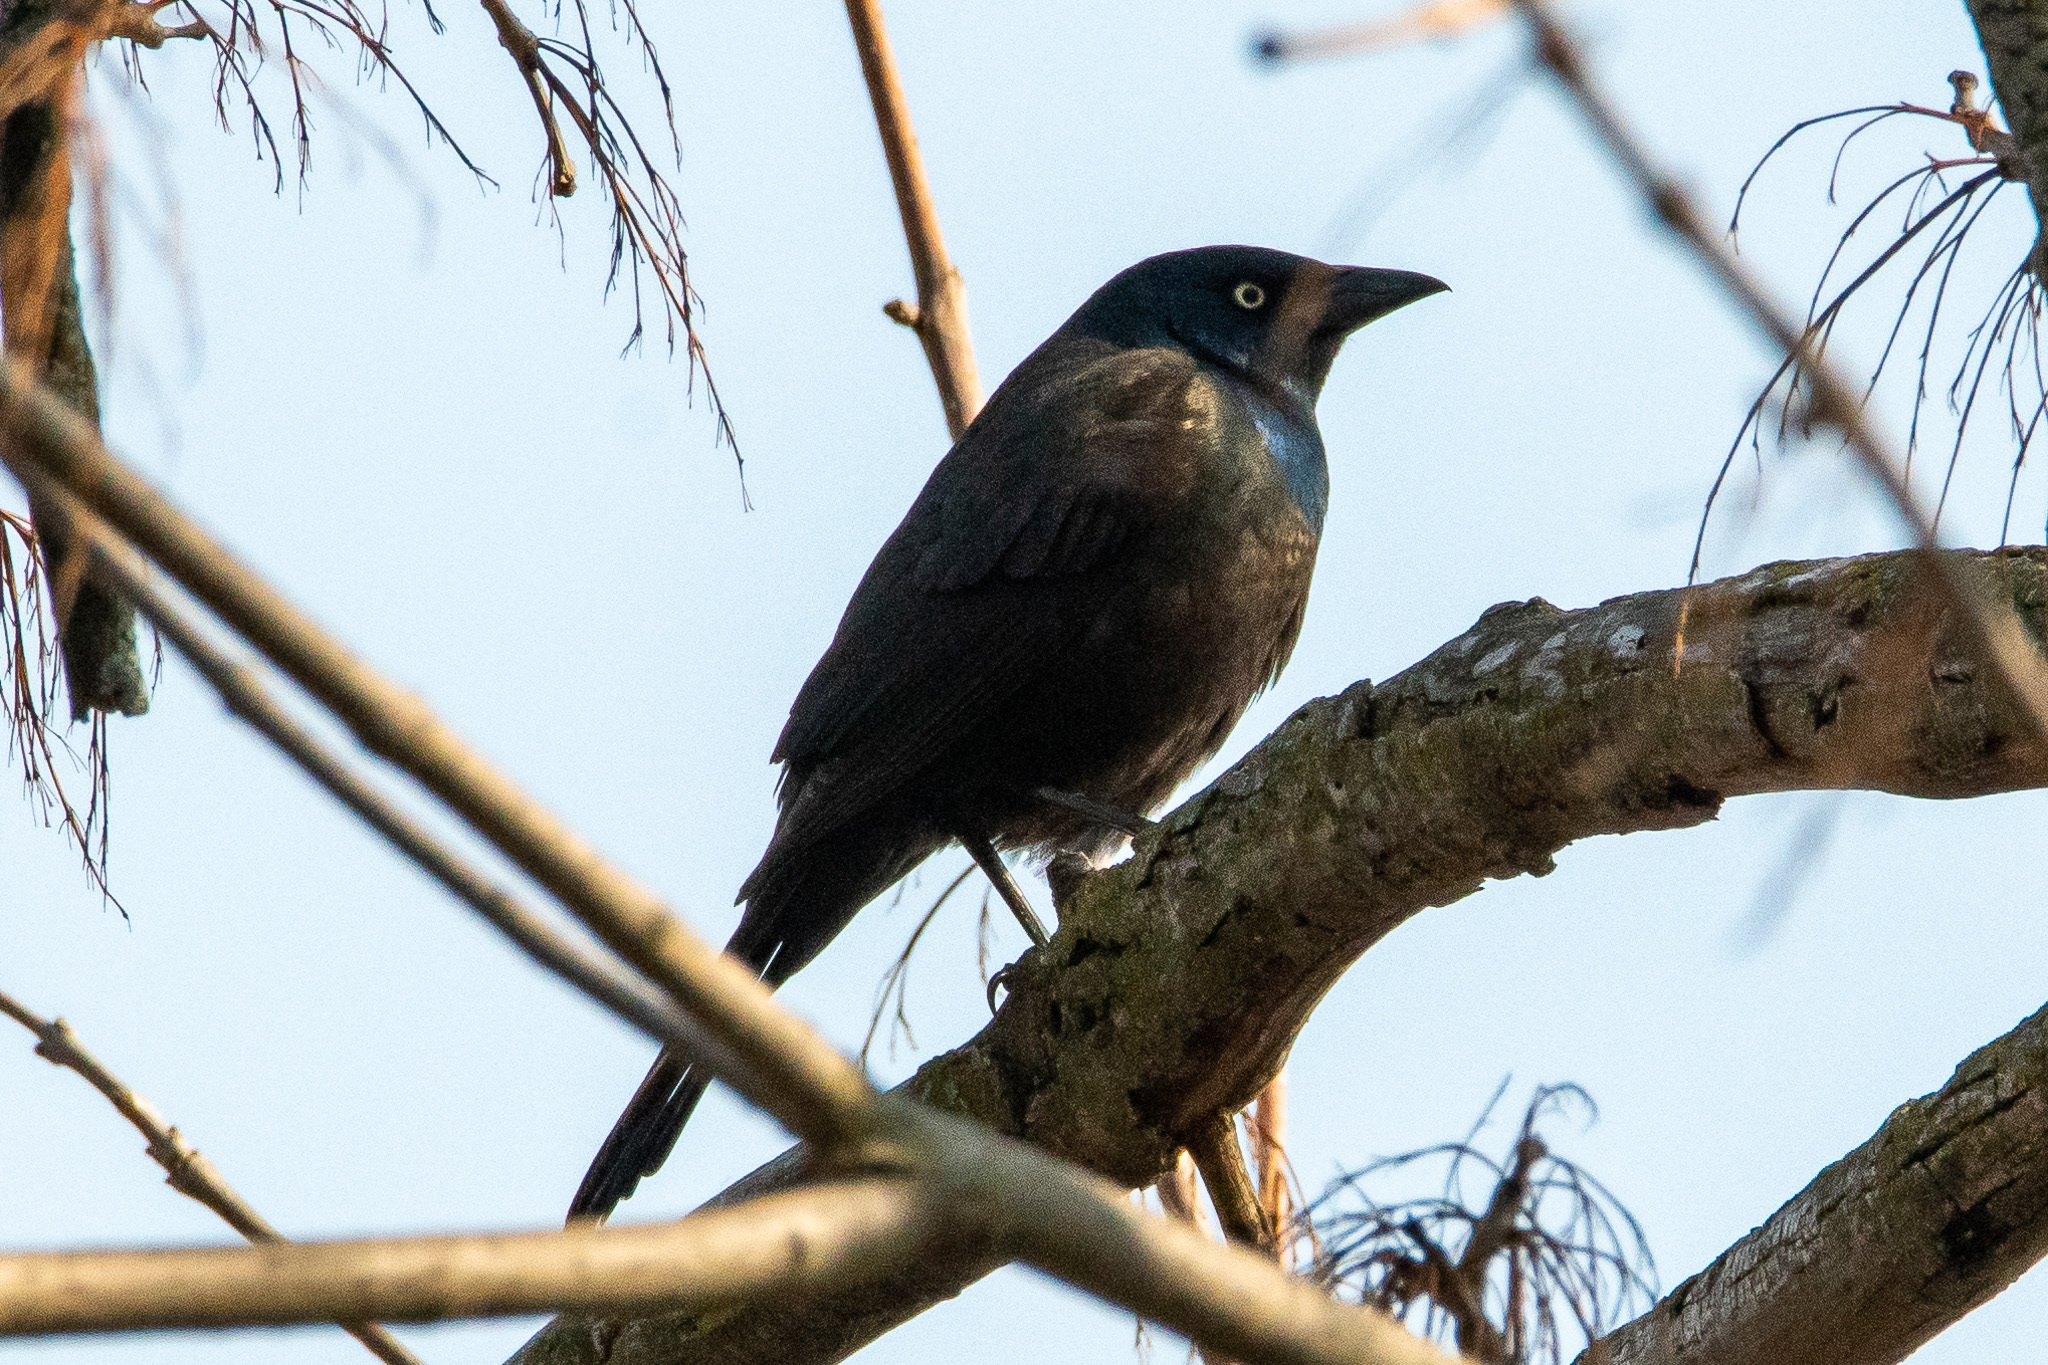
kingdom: Animalia
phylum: Chordata
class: Aves
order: Passeriformes
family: Icteridae
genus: Quiscalus
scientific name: Quiscalus quiscula
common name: Common grackle
